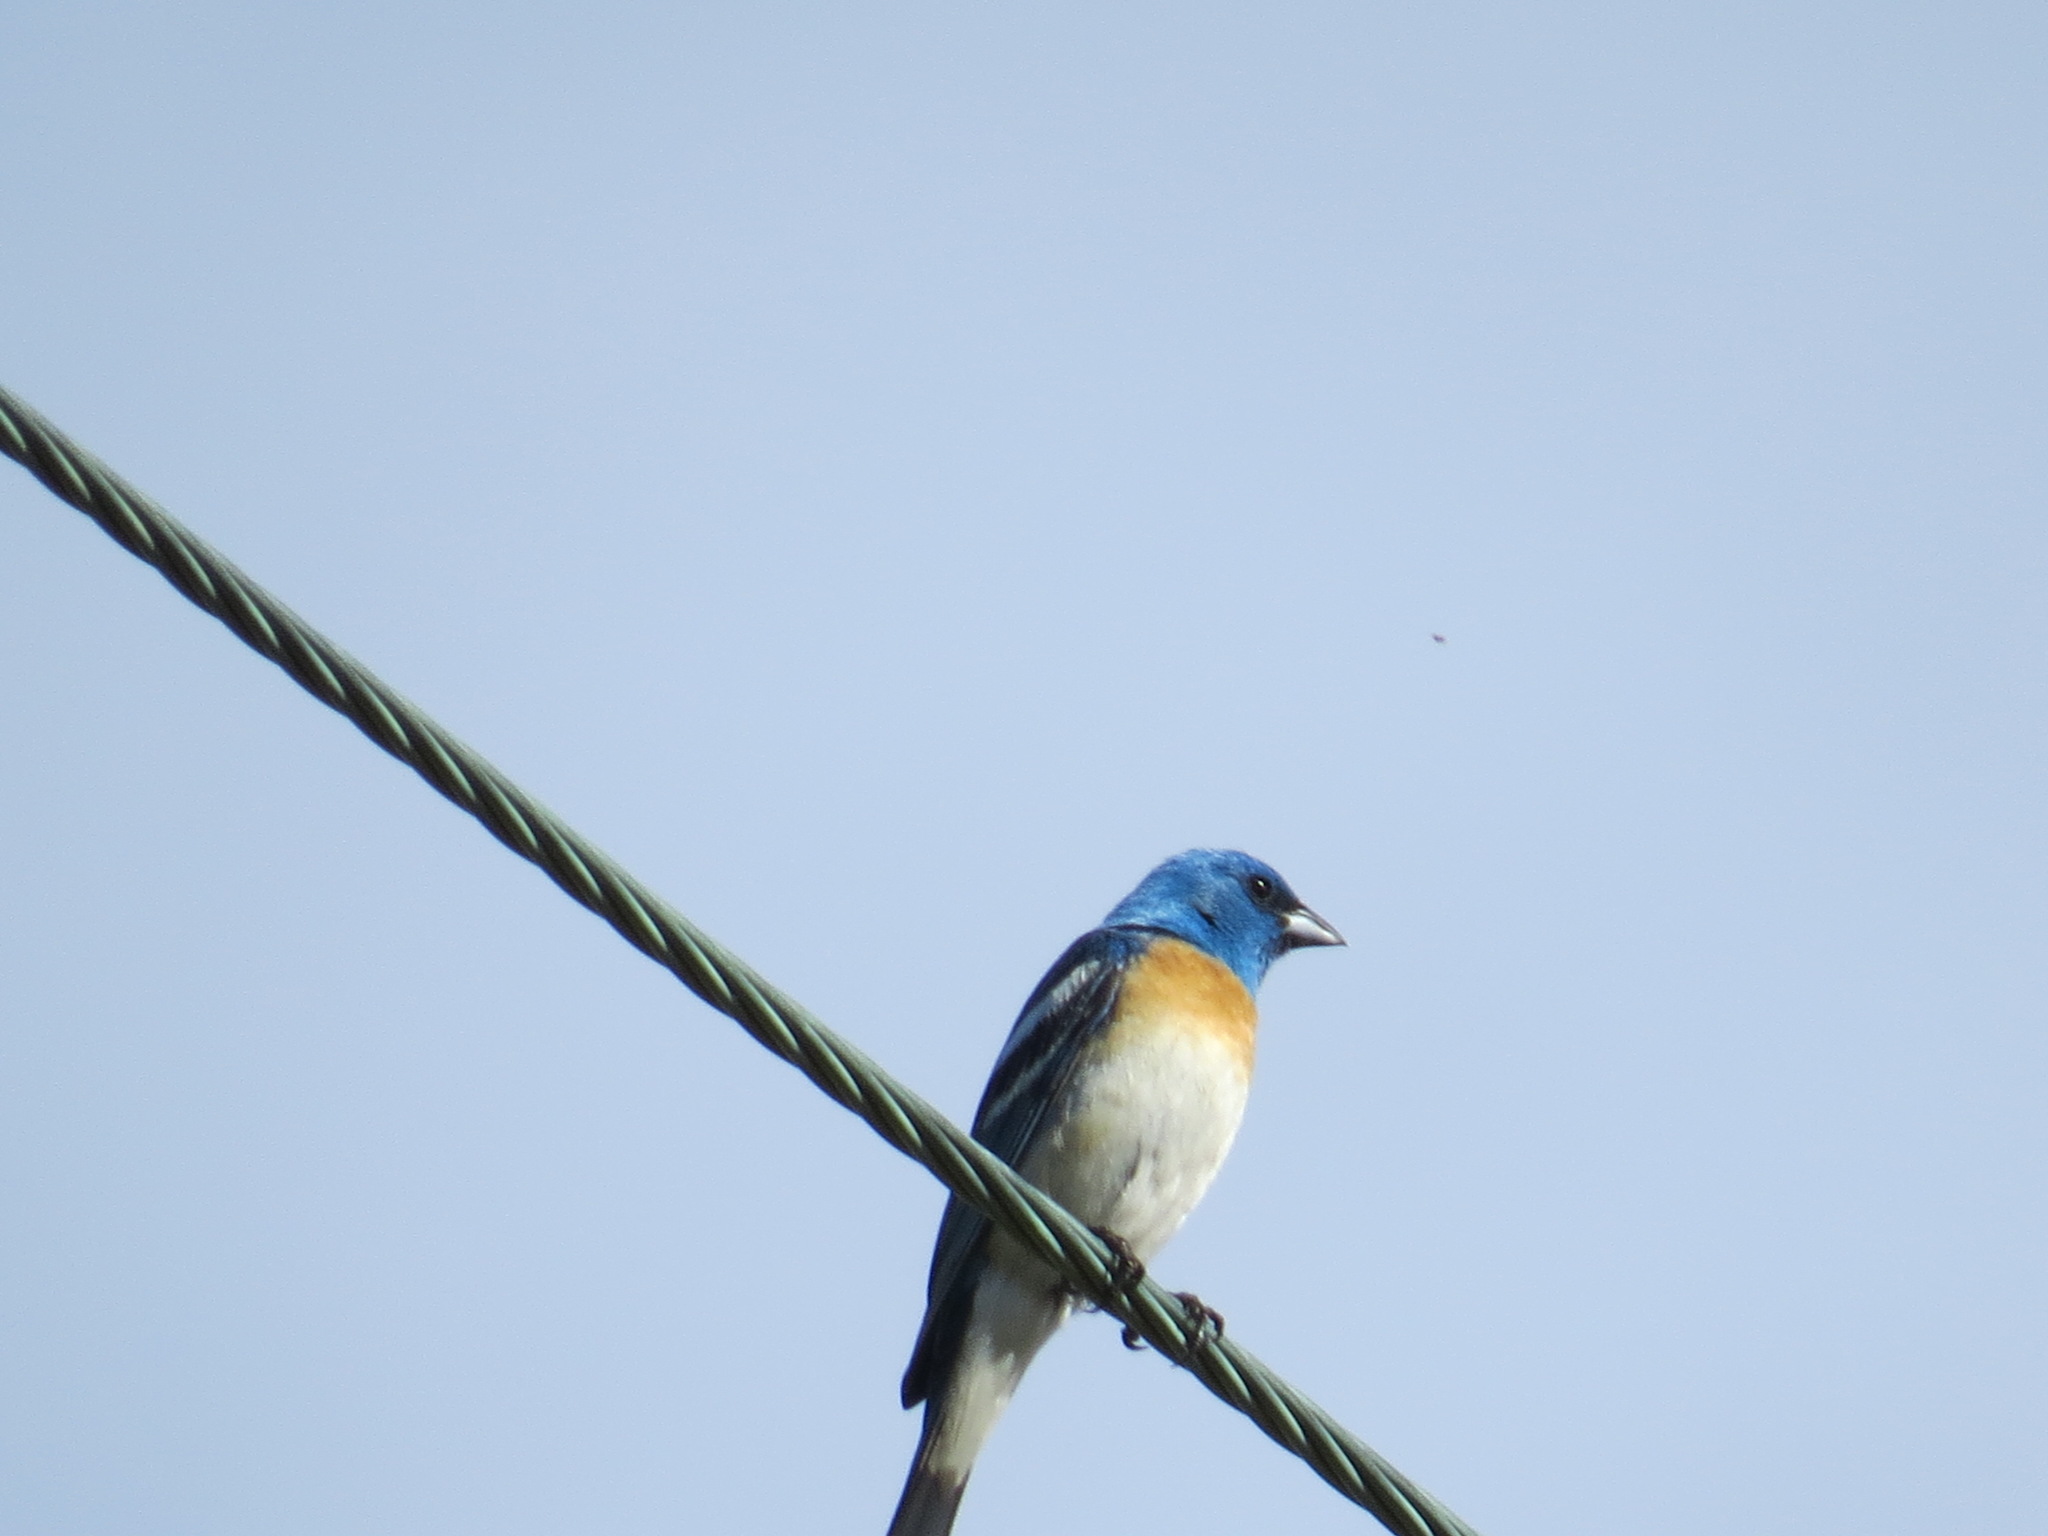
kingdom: Animalia
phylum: Chordata
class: Aves
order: Passeriformes
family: Cardinalidae
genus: Passerina
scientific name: Passerina amoena
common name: Lazuli bunting
